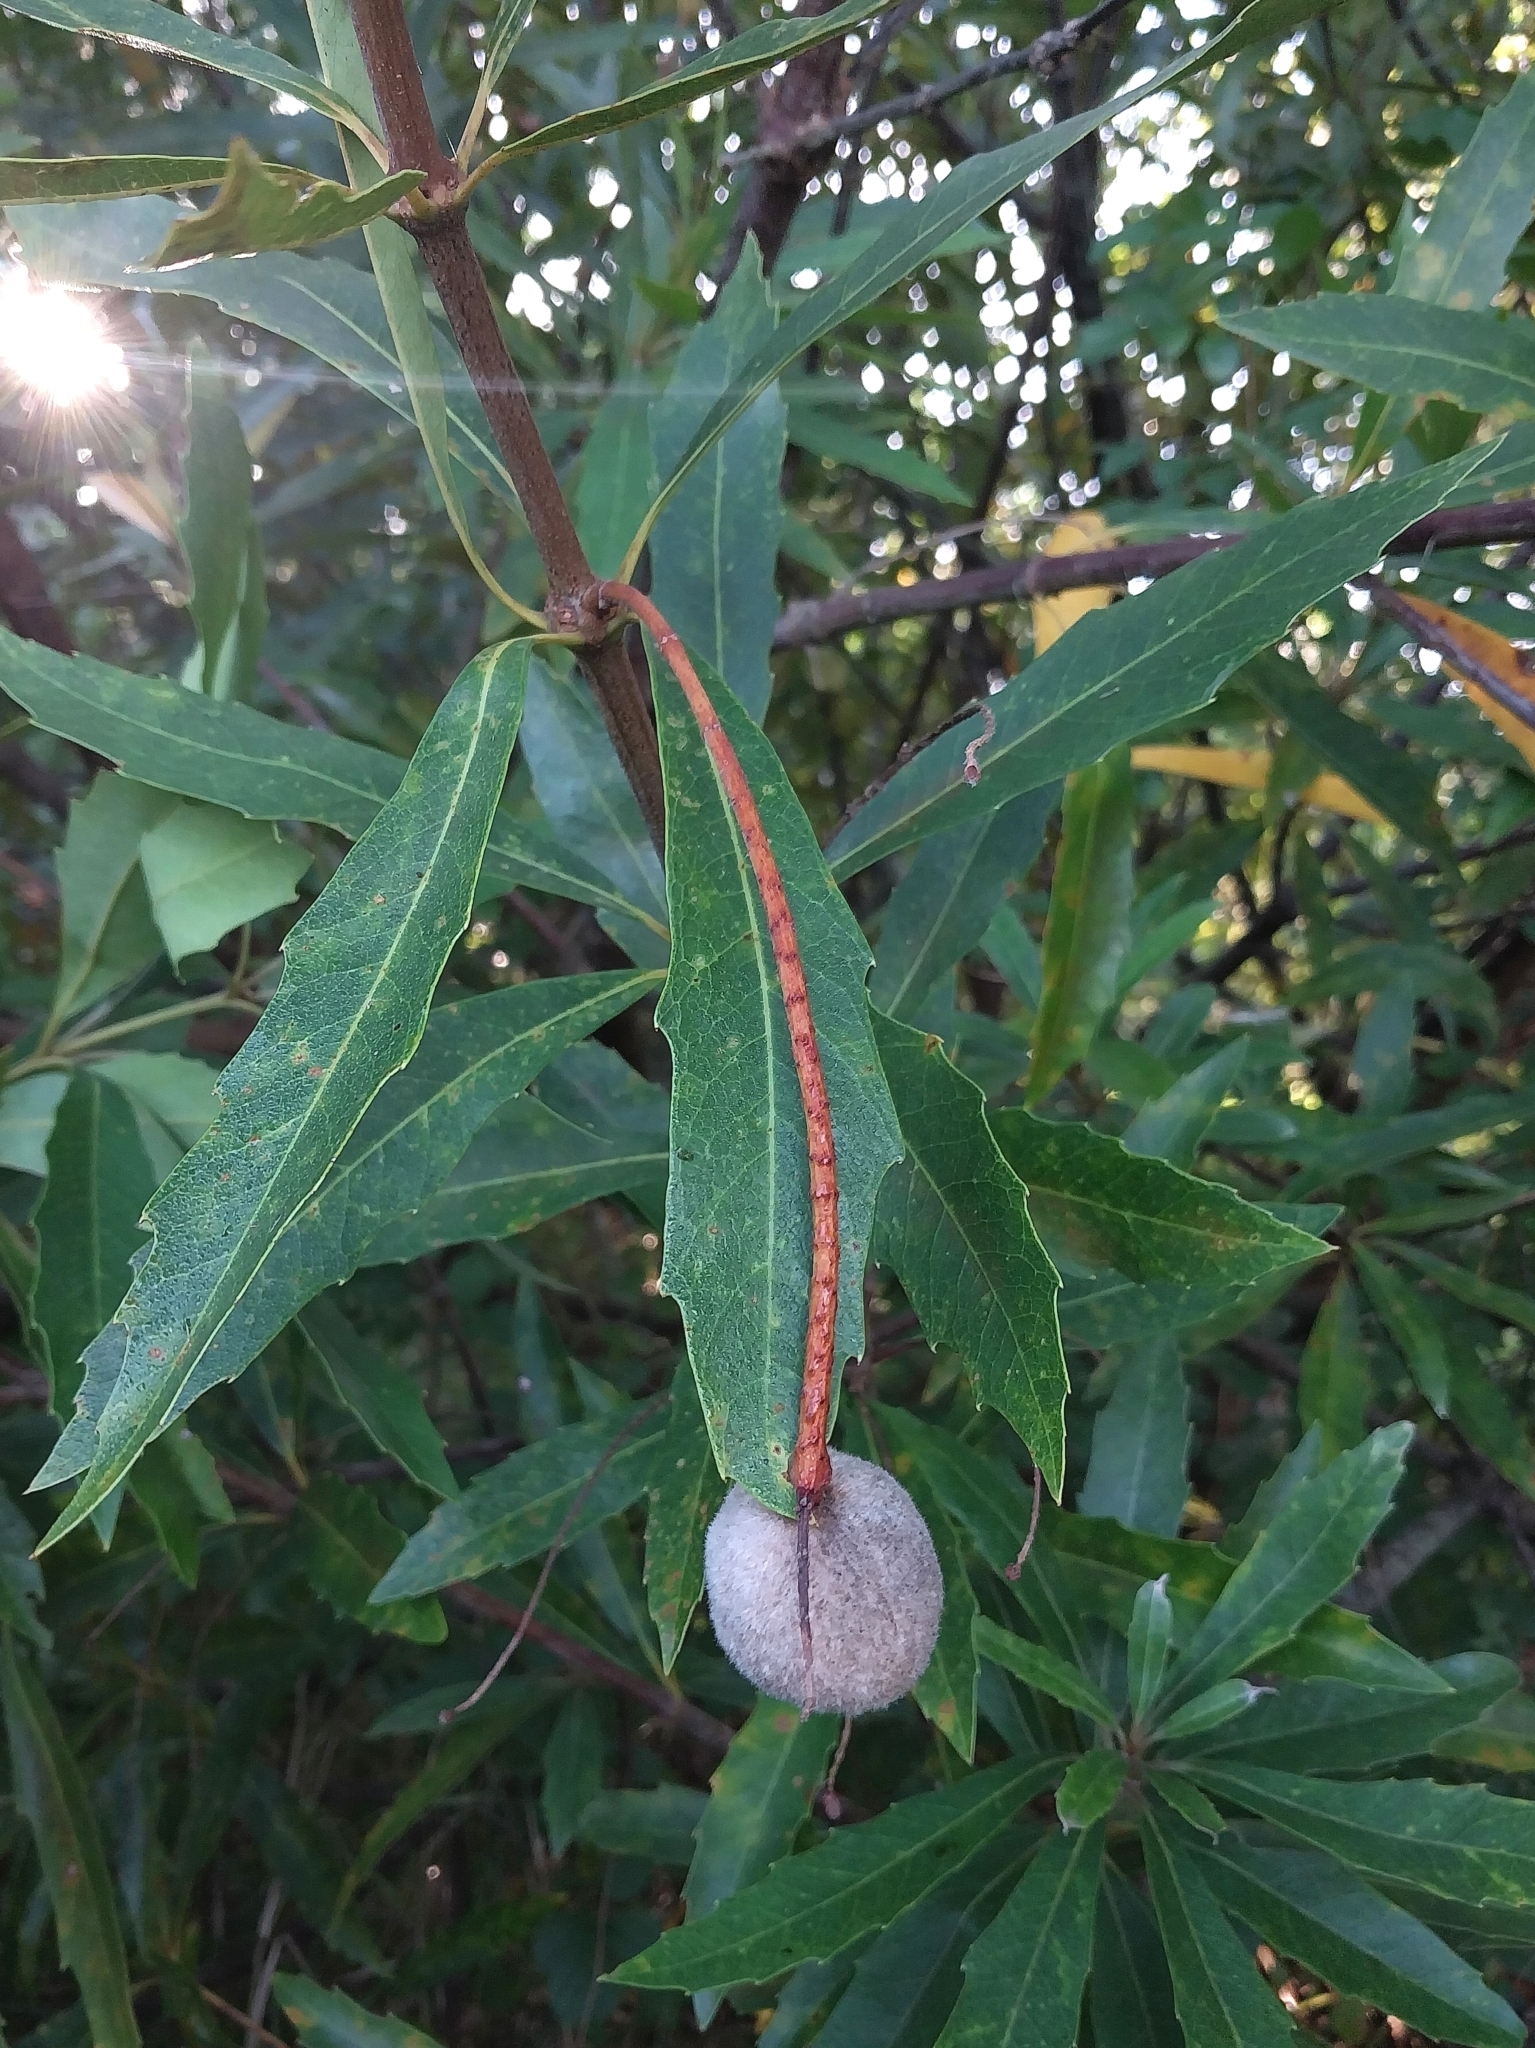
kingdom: Plantae
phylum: Tracheophyta
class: Magnoliopsida
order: Proteales
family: Proteaceae
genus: Brabejum
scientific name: Brabejum stellatifolium
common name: Wild almond
